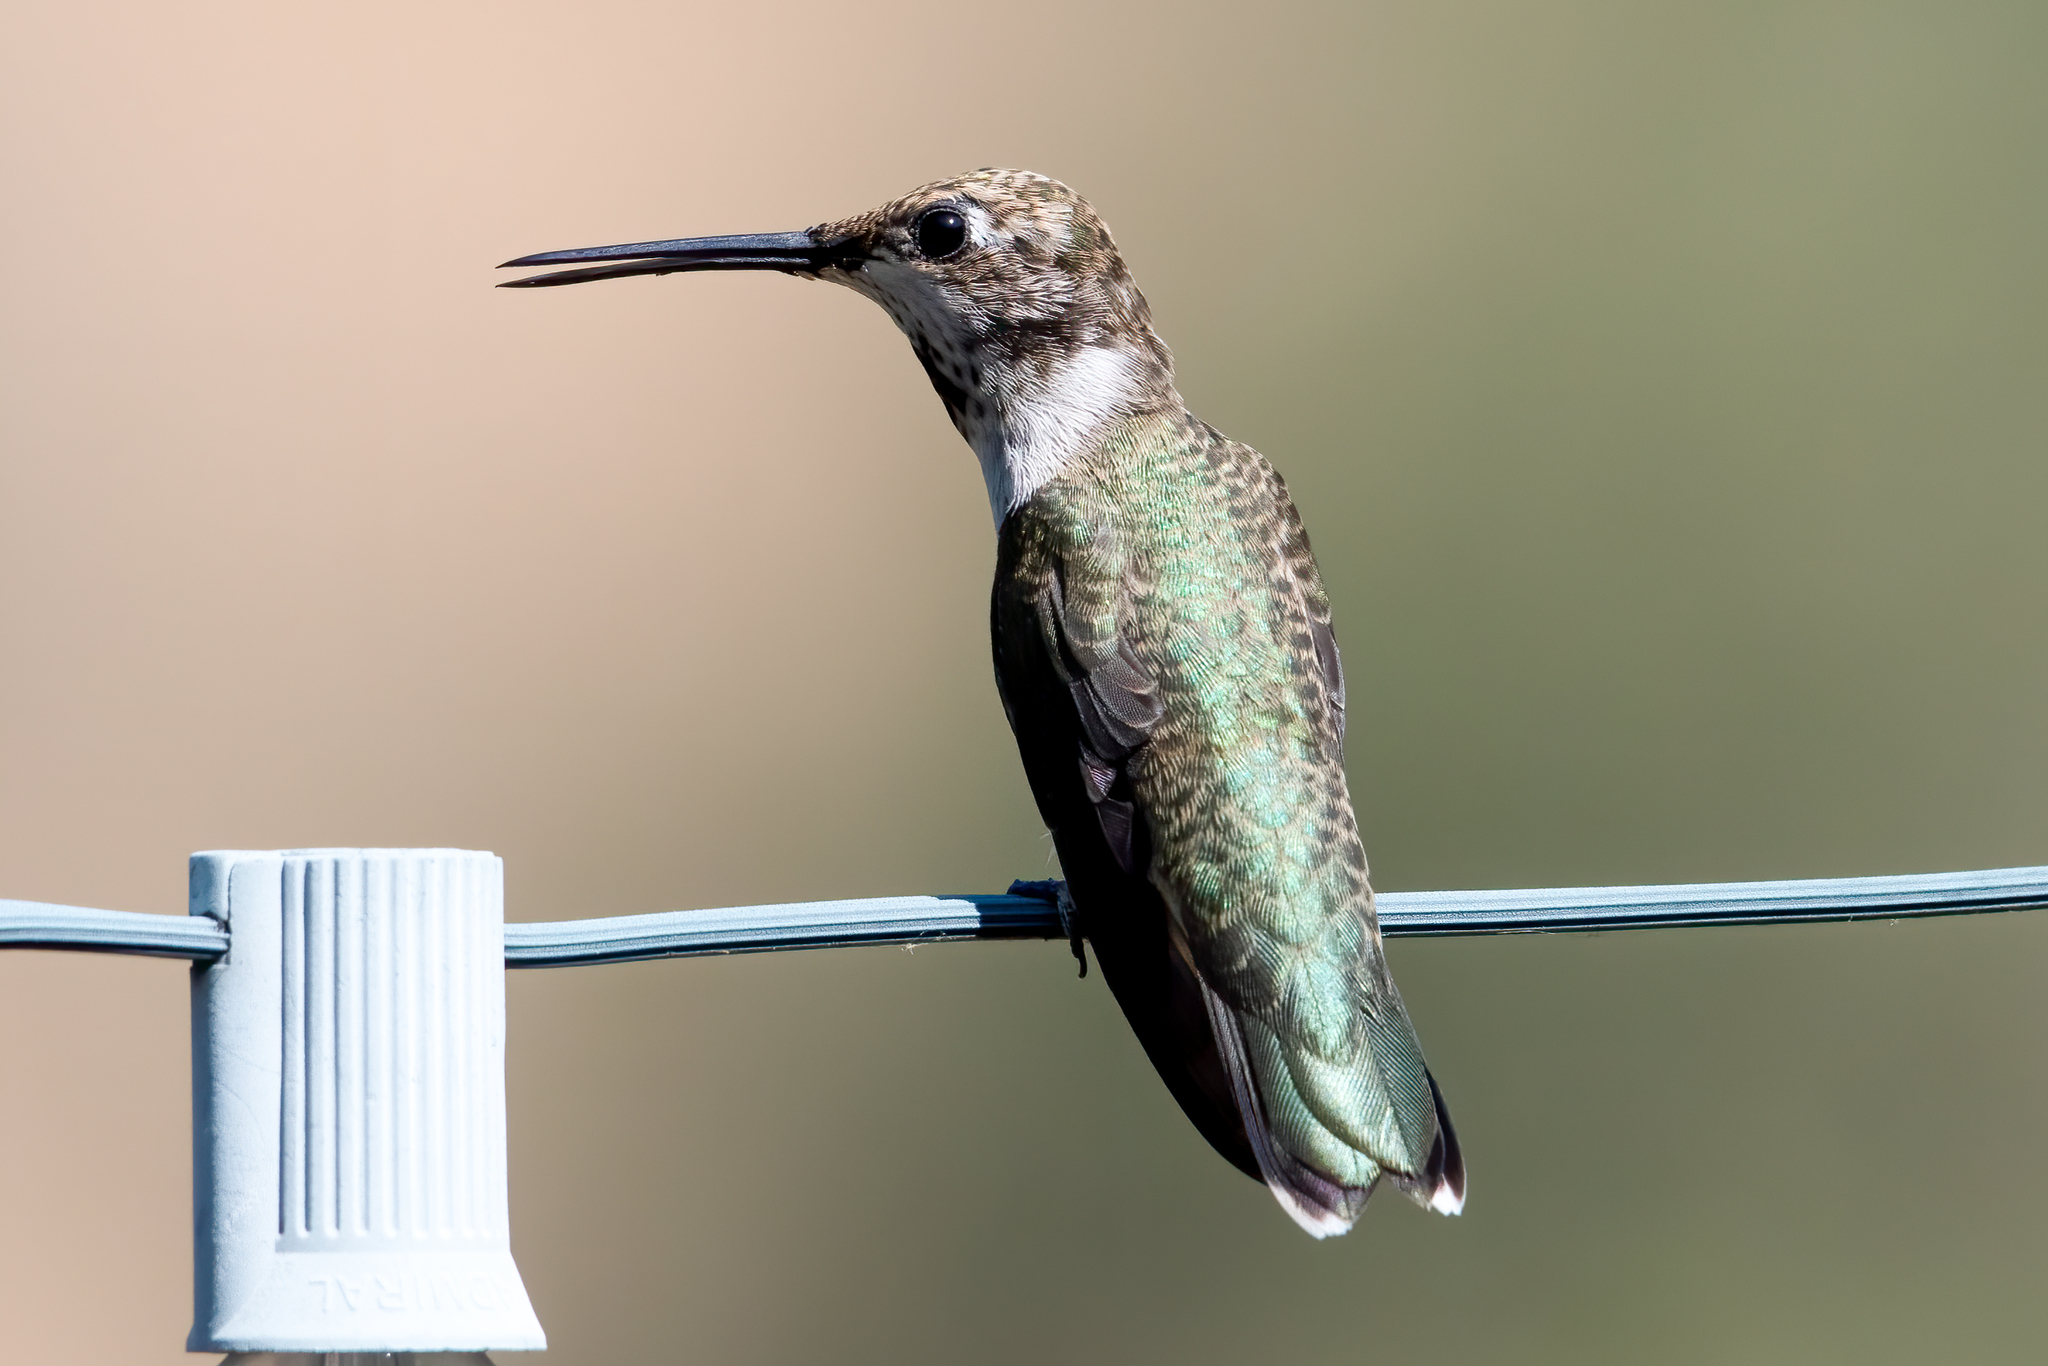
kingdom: Animalia
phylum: Chordata
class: Aves
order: Apodiformes
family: Trochilidae
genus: Archilochus
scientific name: Archilochus alexandri
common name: Black-chinned hummingbird
